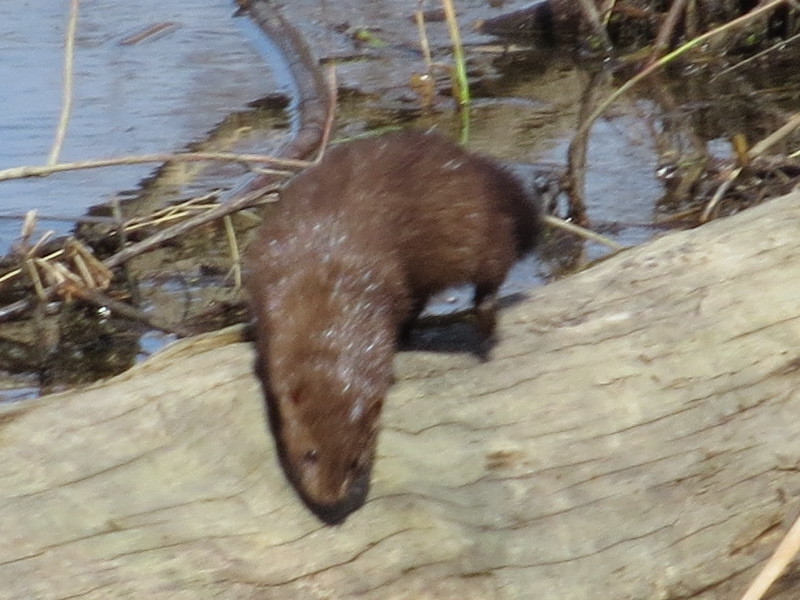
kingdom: Animalia
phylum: Chordata
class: Mammalia
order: Carnivora
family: Mustelidae
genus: Mustela
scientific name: Mustela
